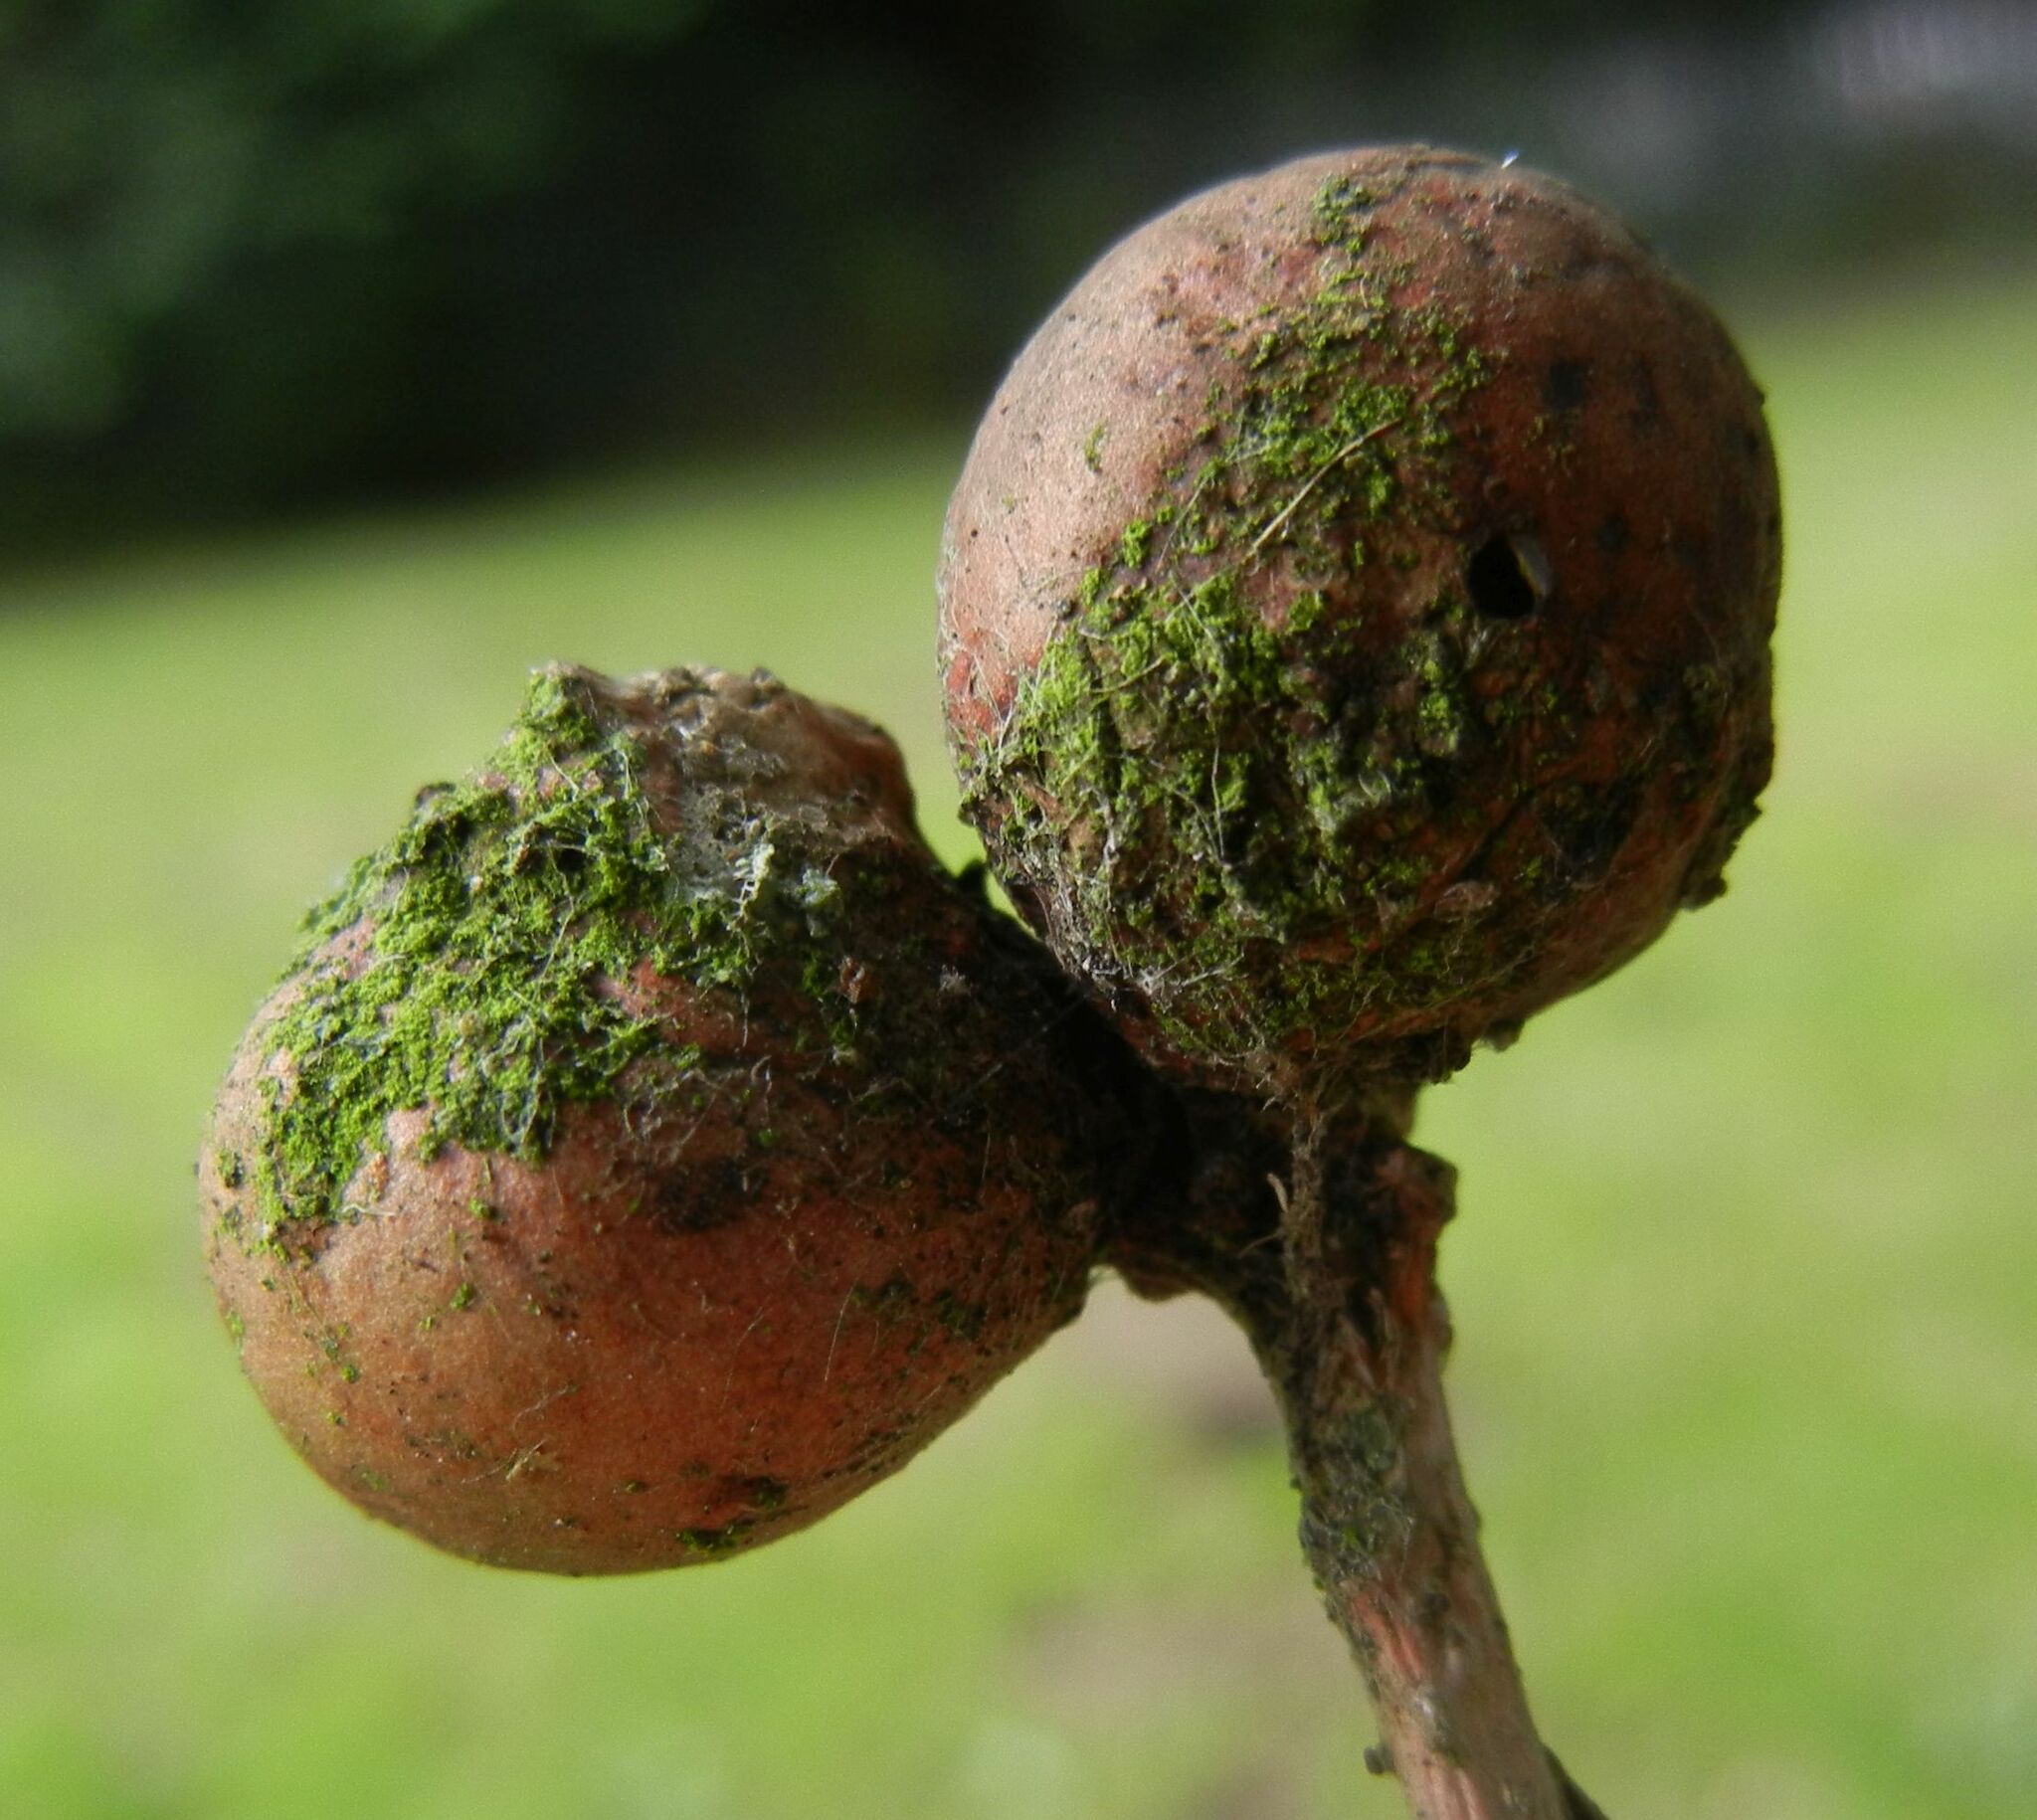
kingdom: Animalia
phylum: Arthropoda
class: Insecta
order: Hymenoptera
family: Cynipidae
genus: Andricus
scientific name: Andricus lignicolus
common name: Cola-nut gall
